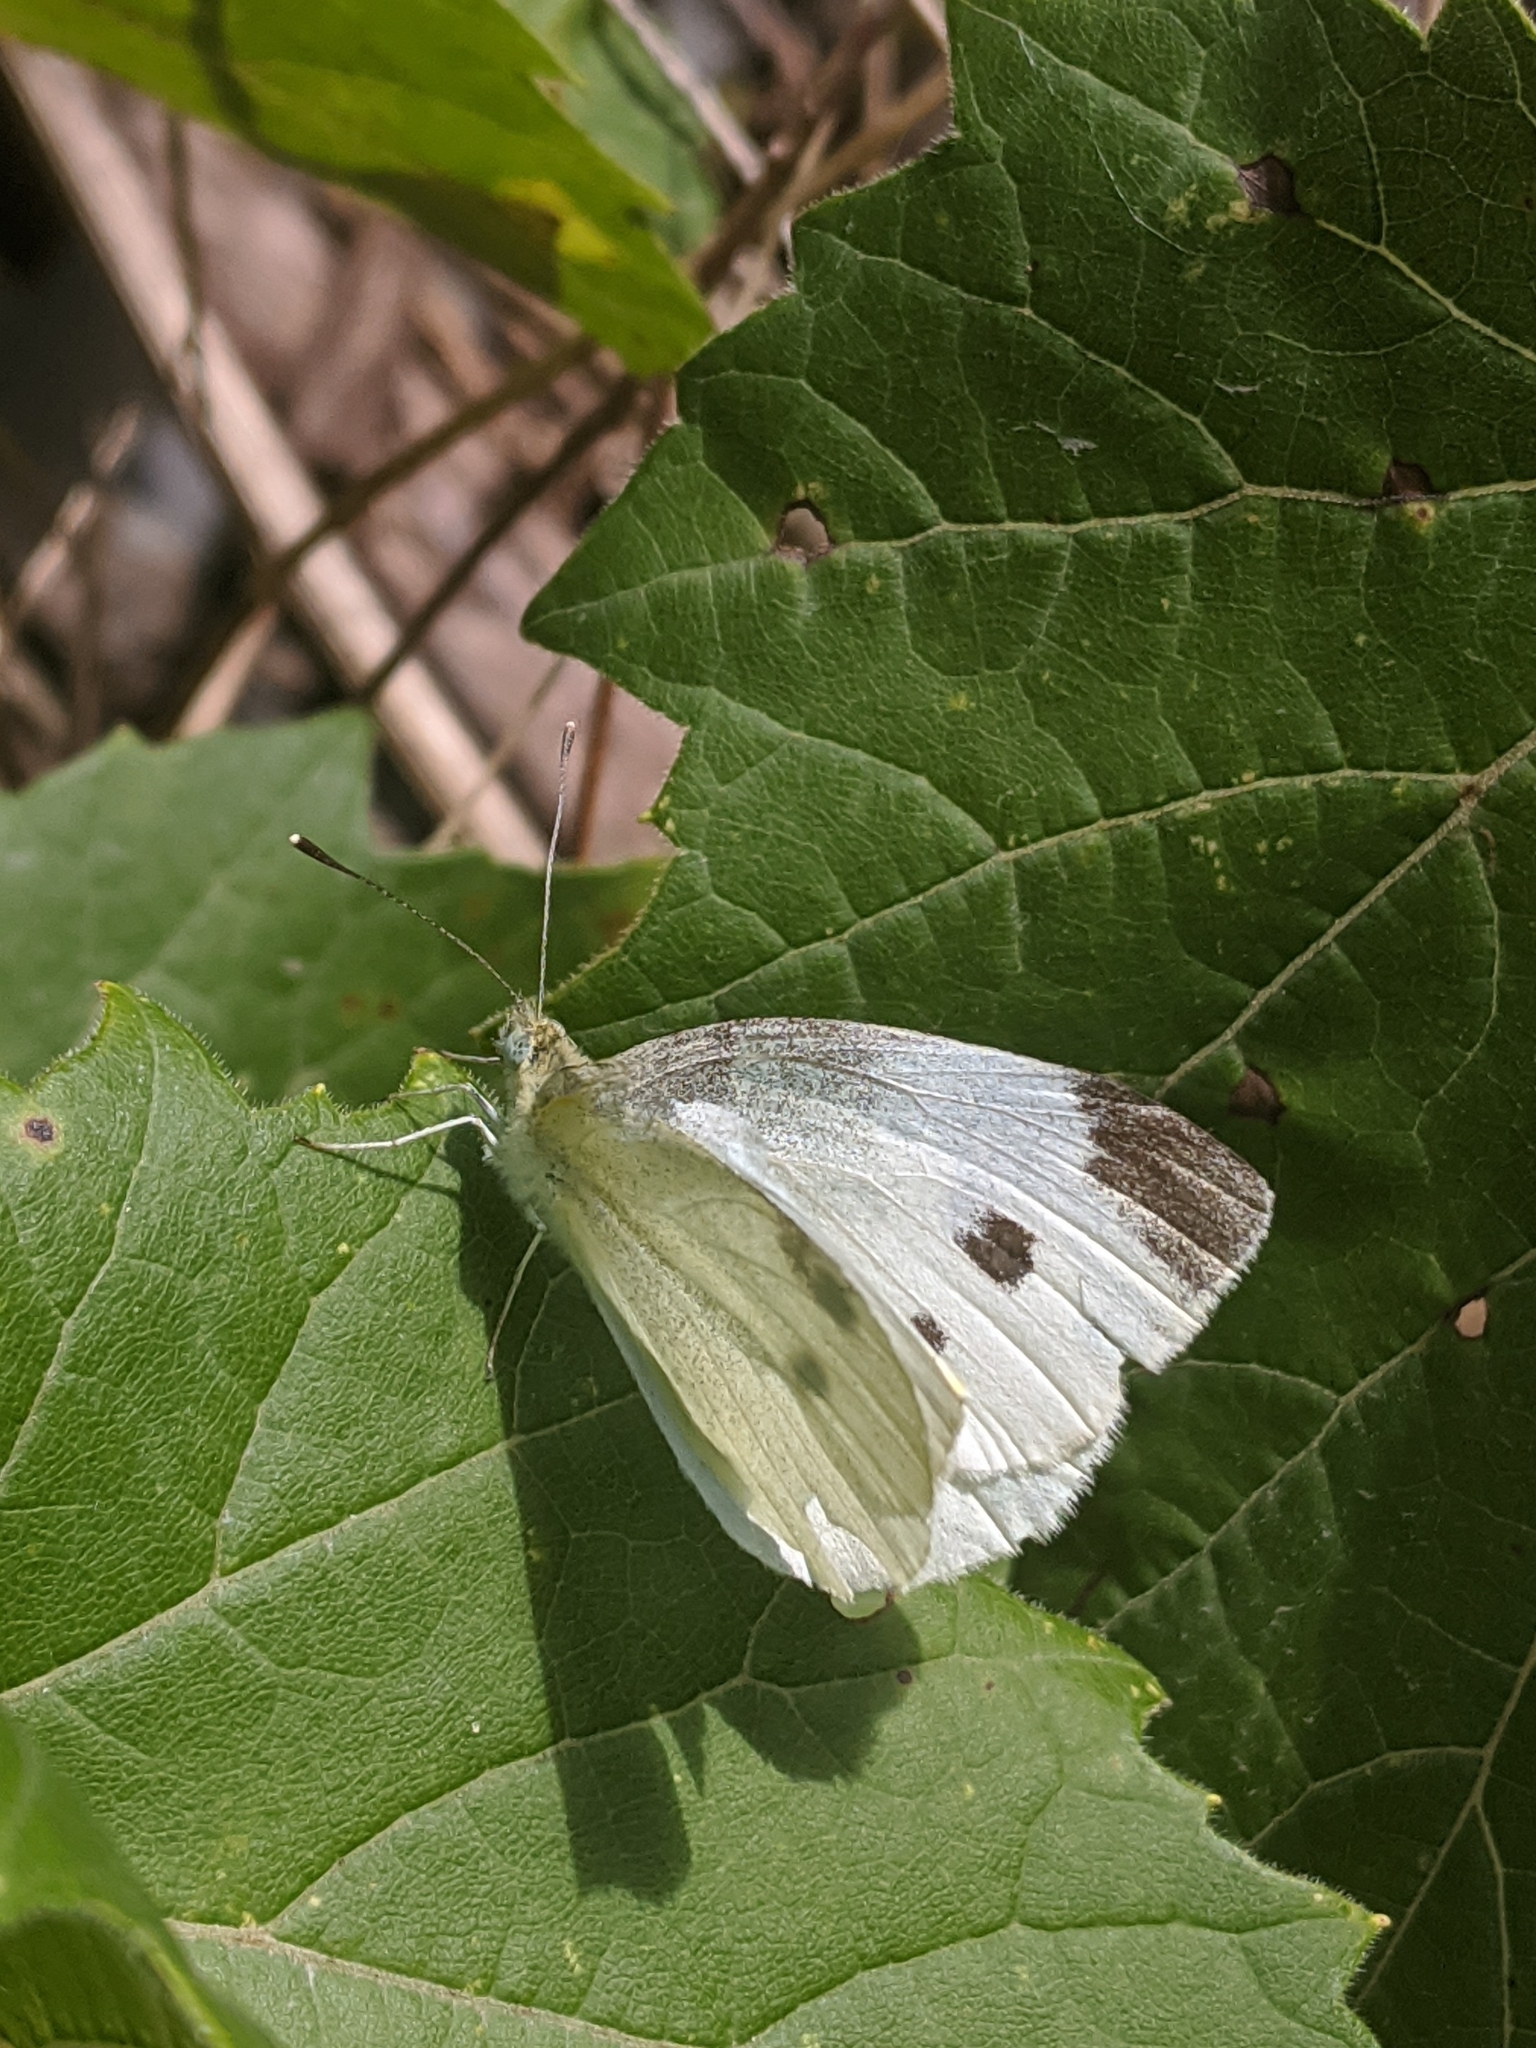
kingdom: Animalia
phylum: Arthropoda
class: Insecta
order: Lepidoptera
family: Pieridae
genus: Pieris
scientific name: Pieris rapae
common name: Small white
